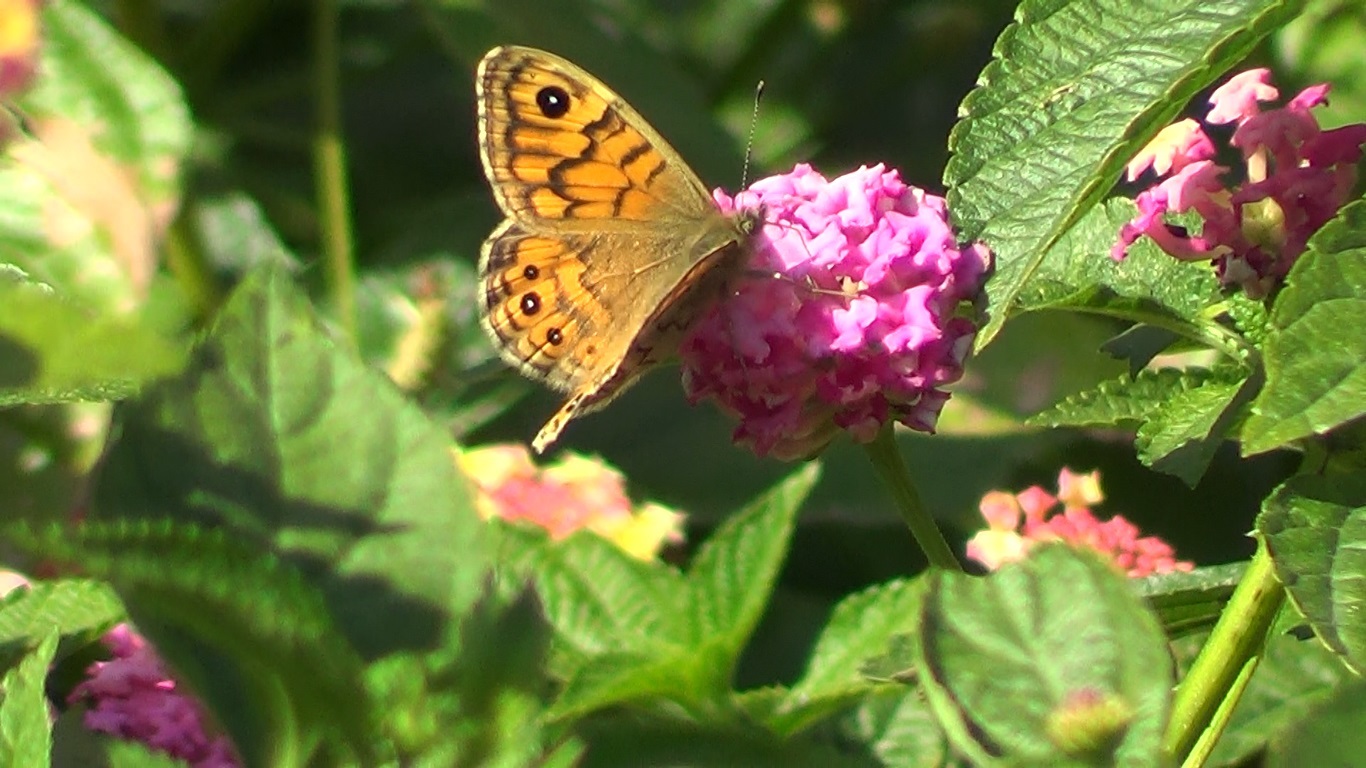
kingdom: Animalia
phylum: Arthropoda
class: Insecta
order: Lepidoptera
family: Nymphalidae
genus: Pararge
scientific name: Pararge Lasiommata megera
